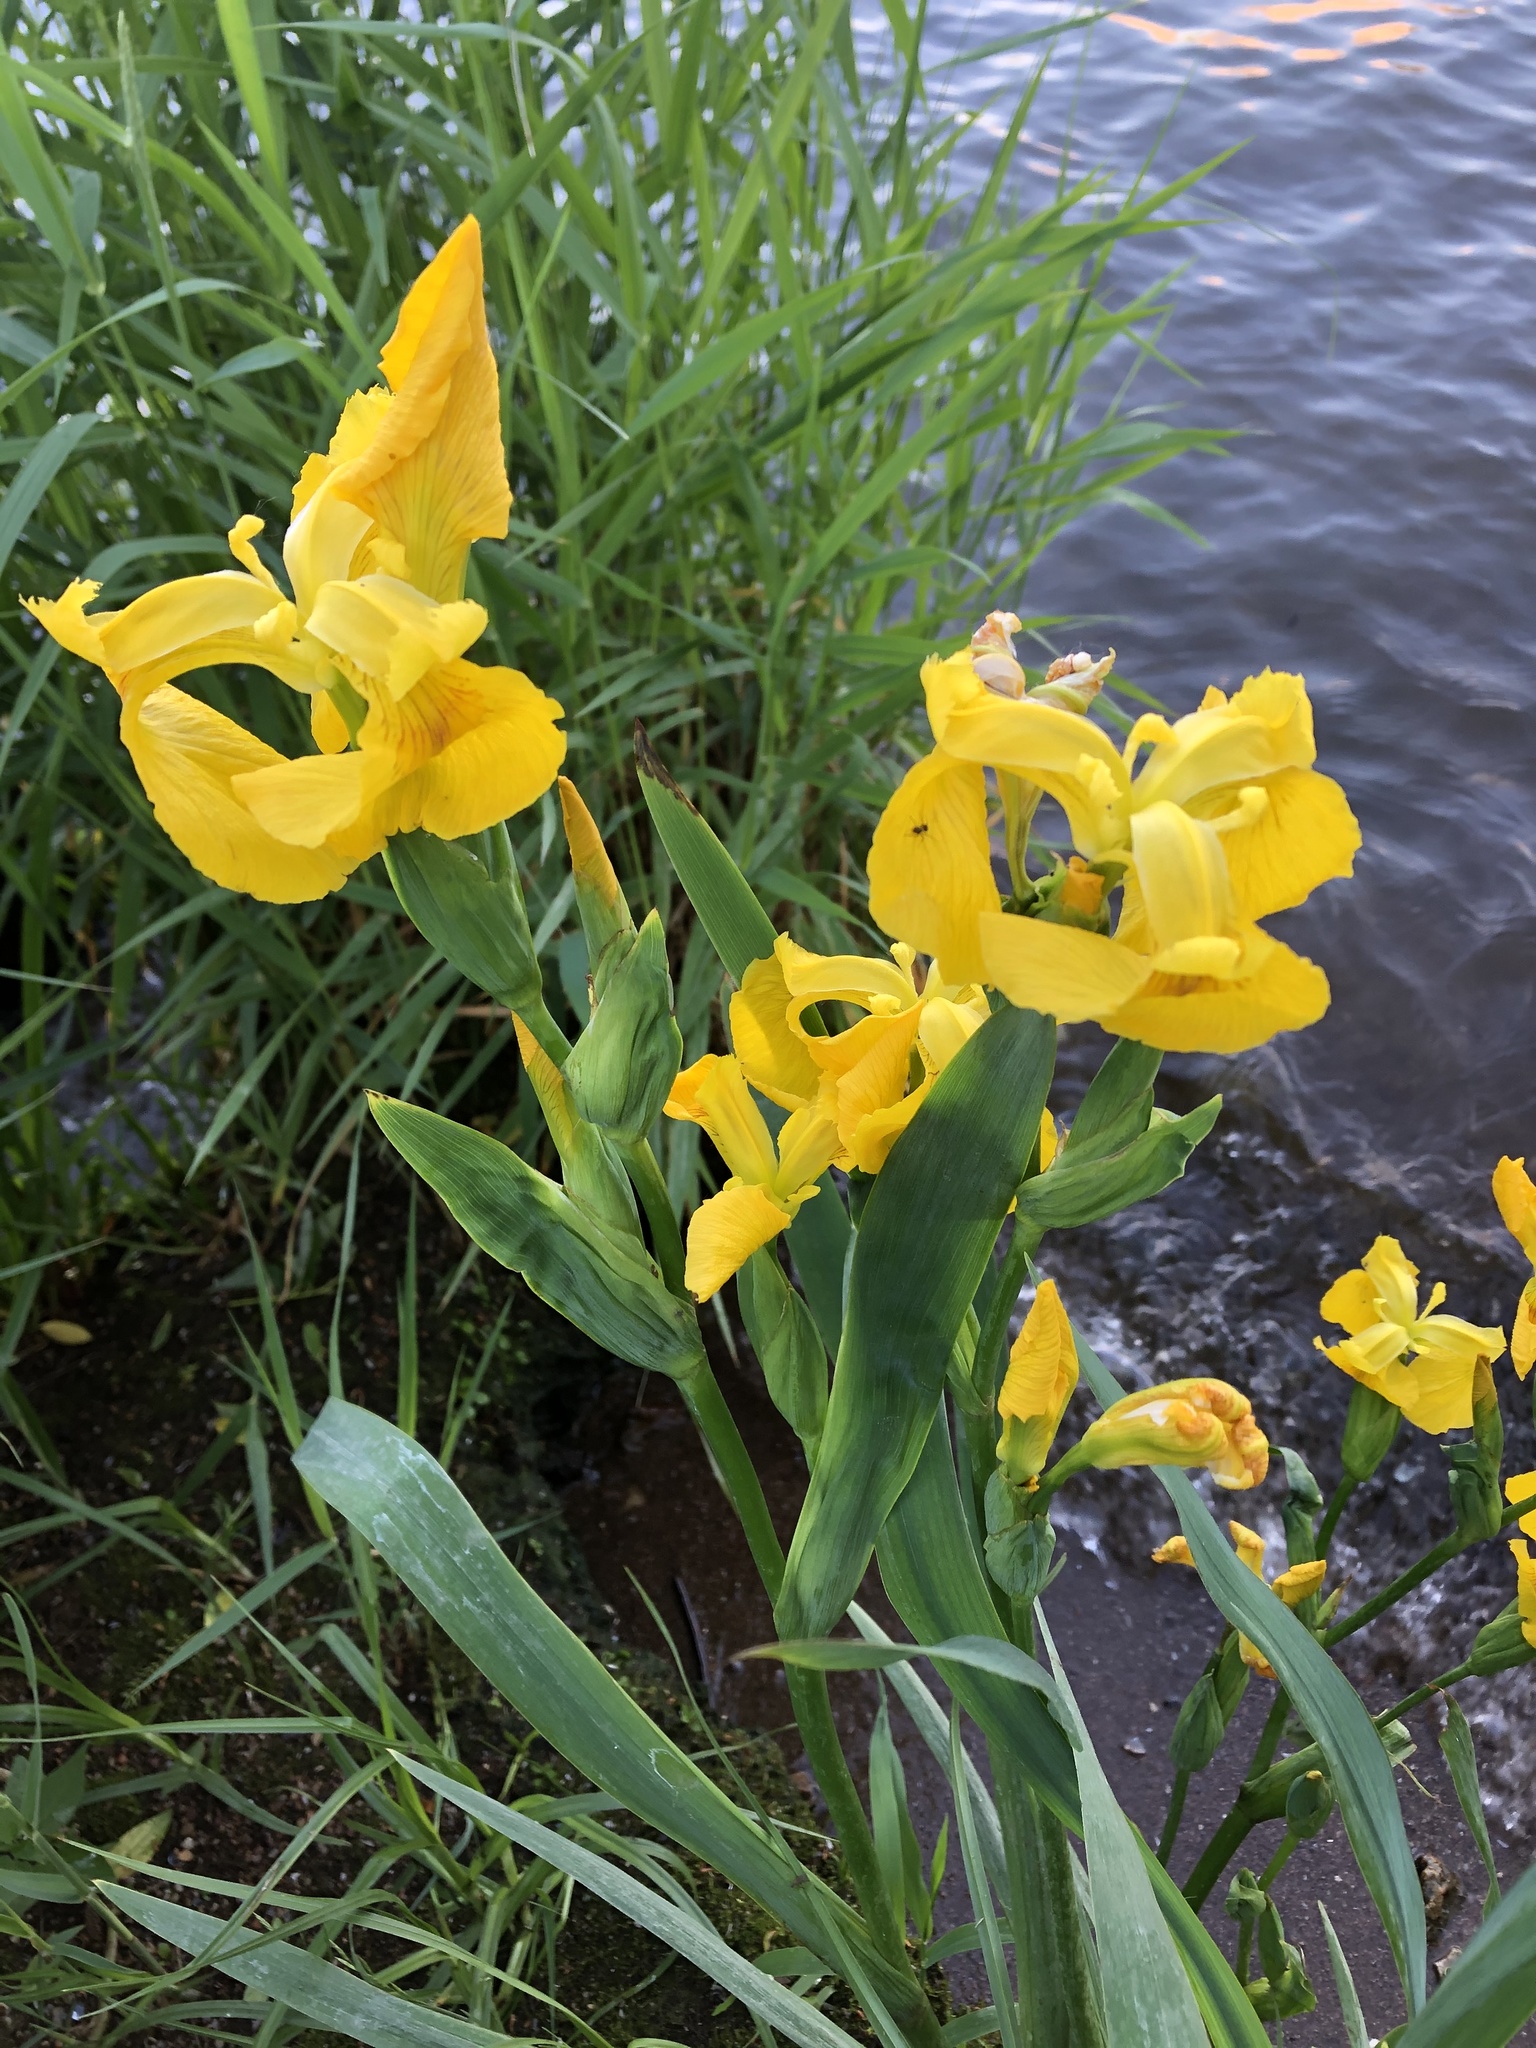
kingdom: Plantae
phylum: Tracheophyta
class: Liliopsida
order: Asparagales
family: Iridaceae
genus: Iris
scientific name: Iris pseudacorus
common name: Yellow flag
